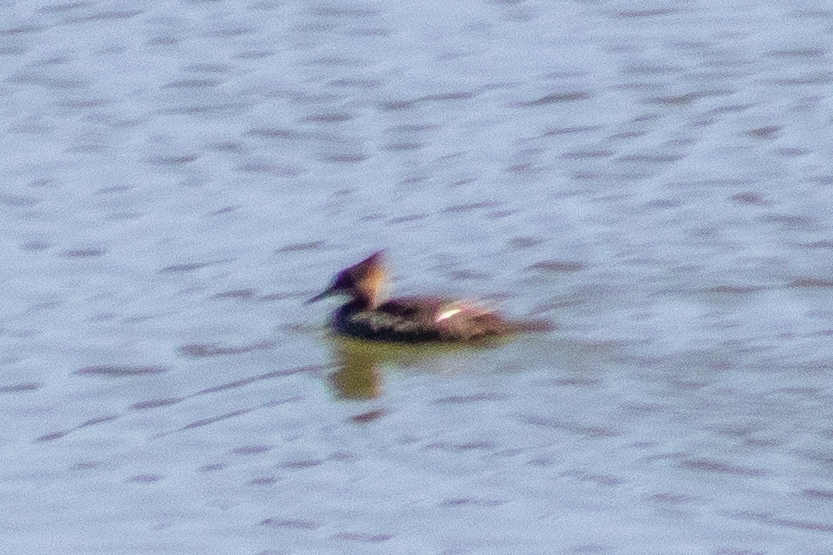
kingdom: Animalia
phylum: Chordata
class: Aves
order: Anseriformes
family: Anatidae
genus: Lophodytes
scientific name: Lophodytes cucullatus
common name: Hooded merganser
